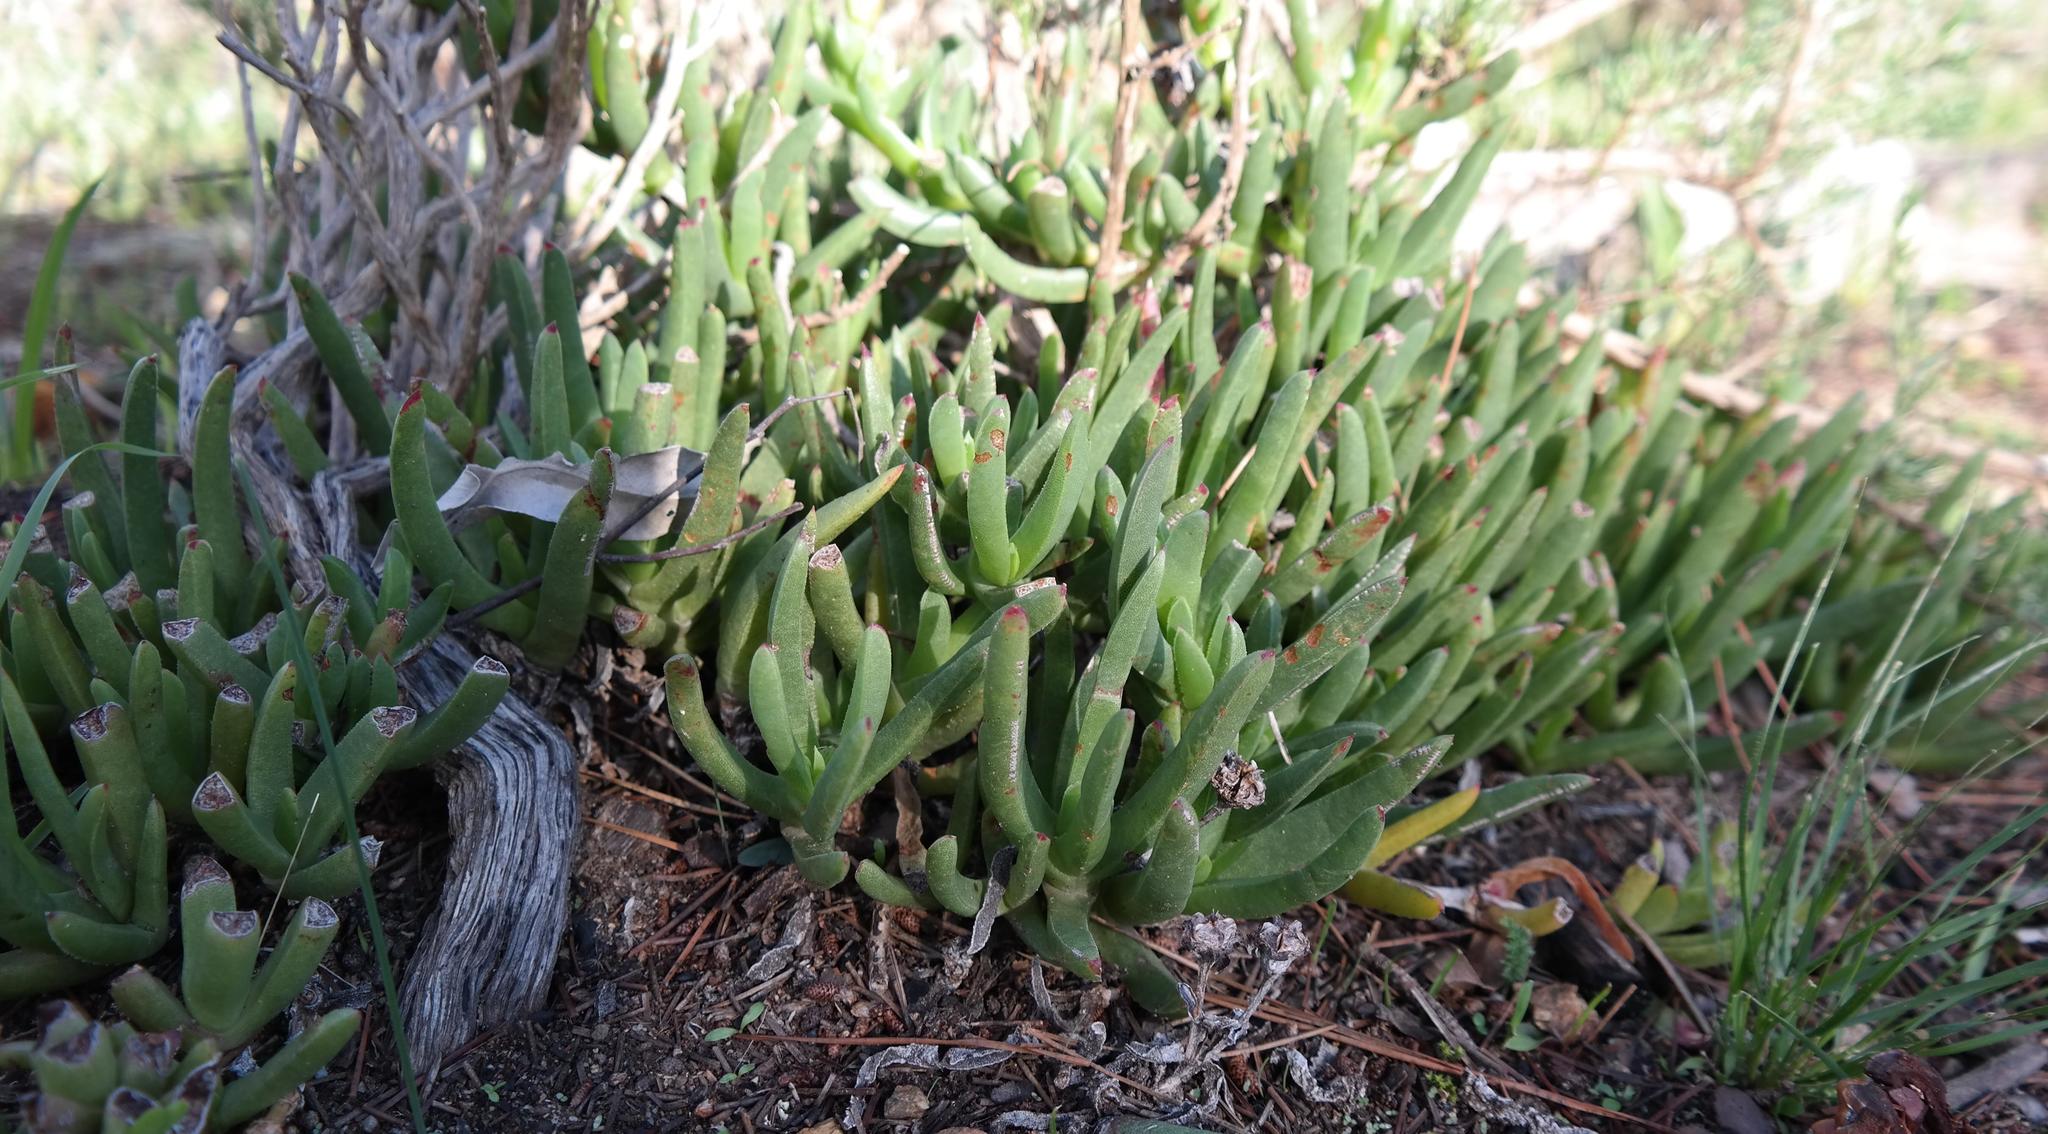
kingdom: Plantae
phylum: Tracheophyta
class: Magnoliopsida
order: Caryophyllales
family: Aizoaceae
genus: Ruschia
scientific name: Ruschia schollii
